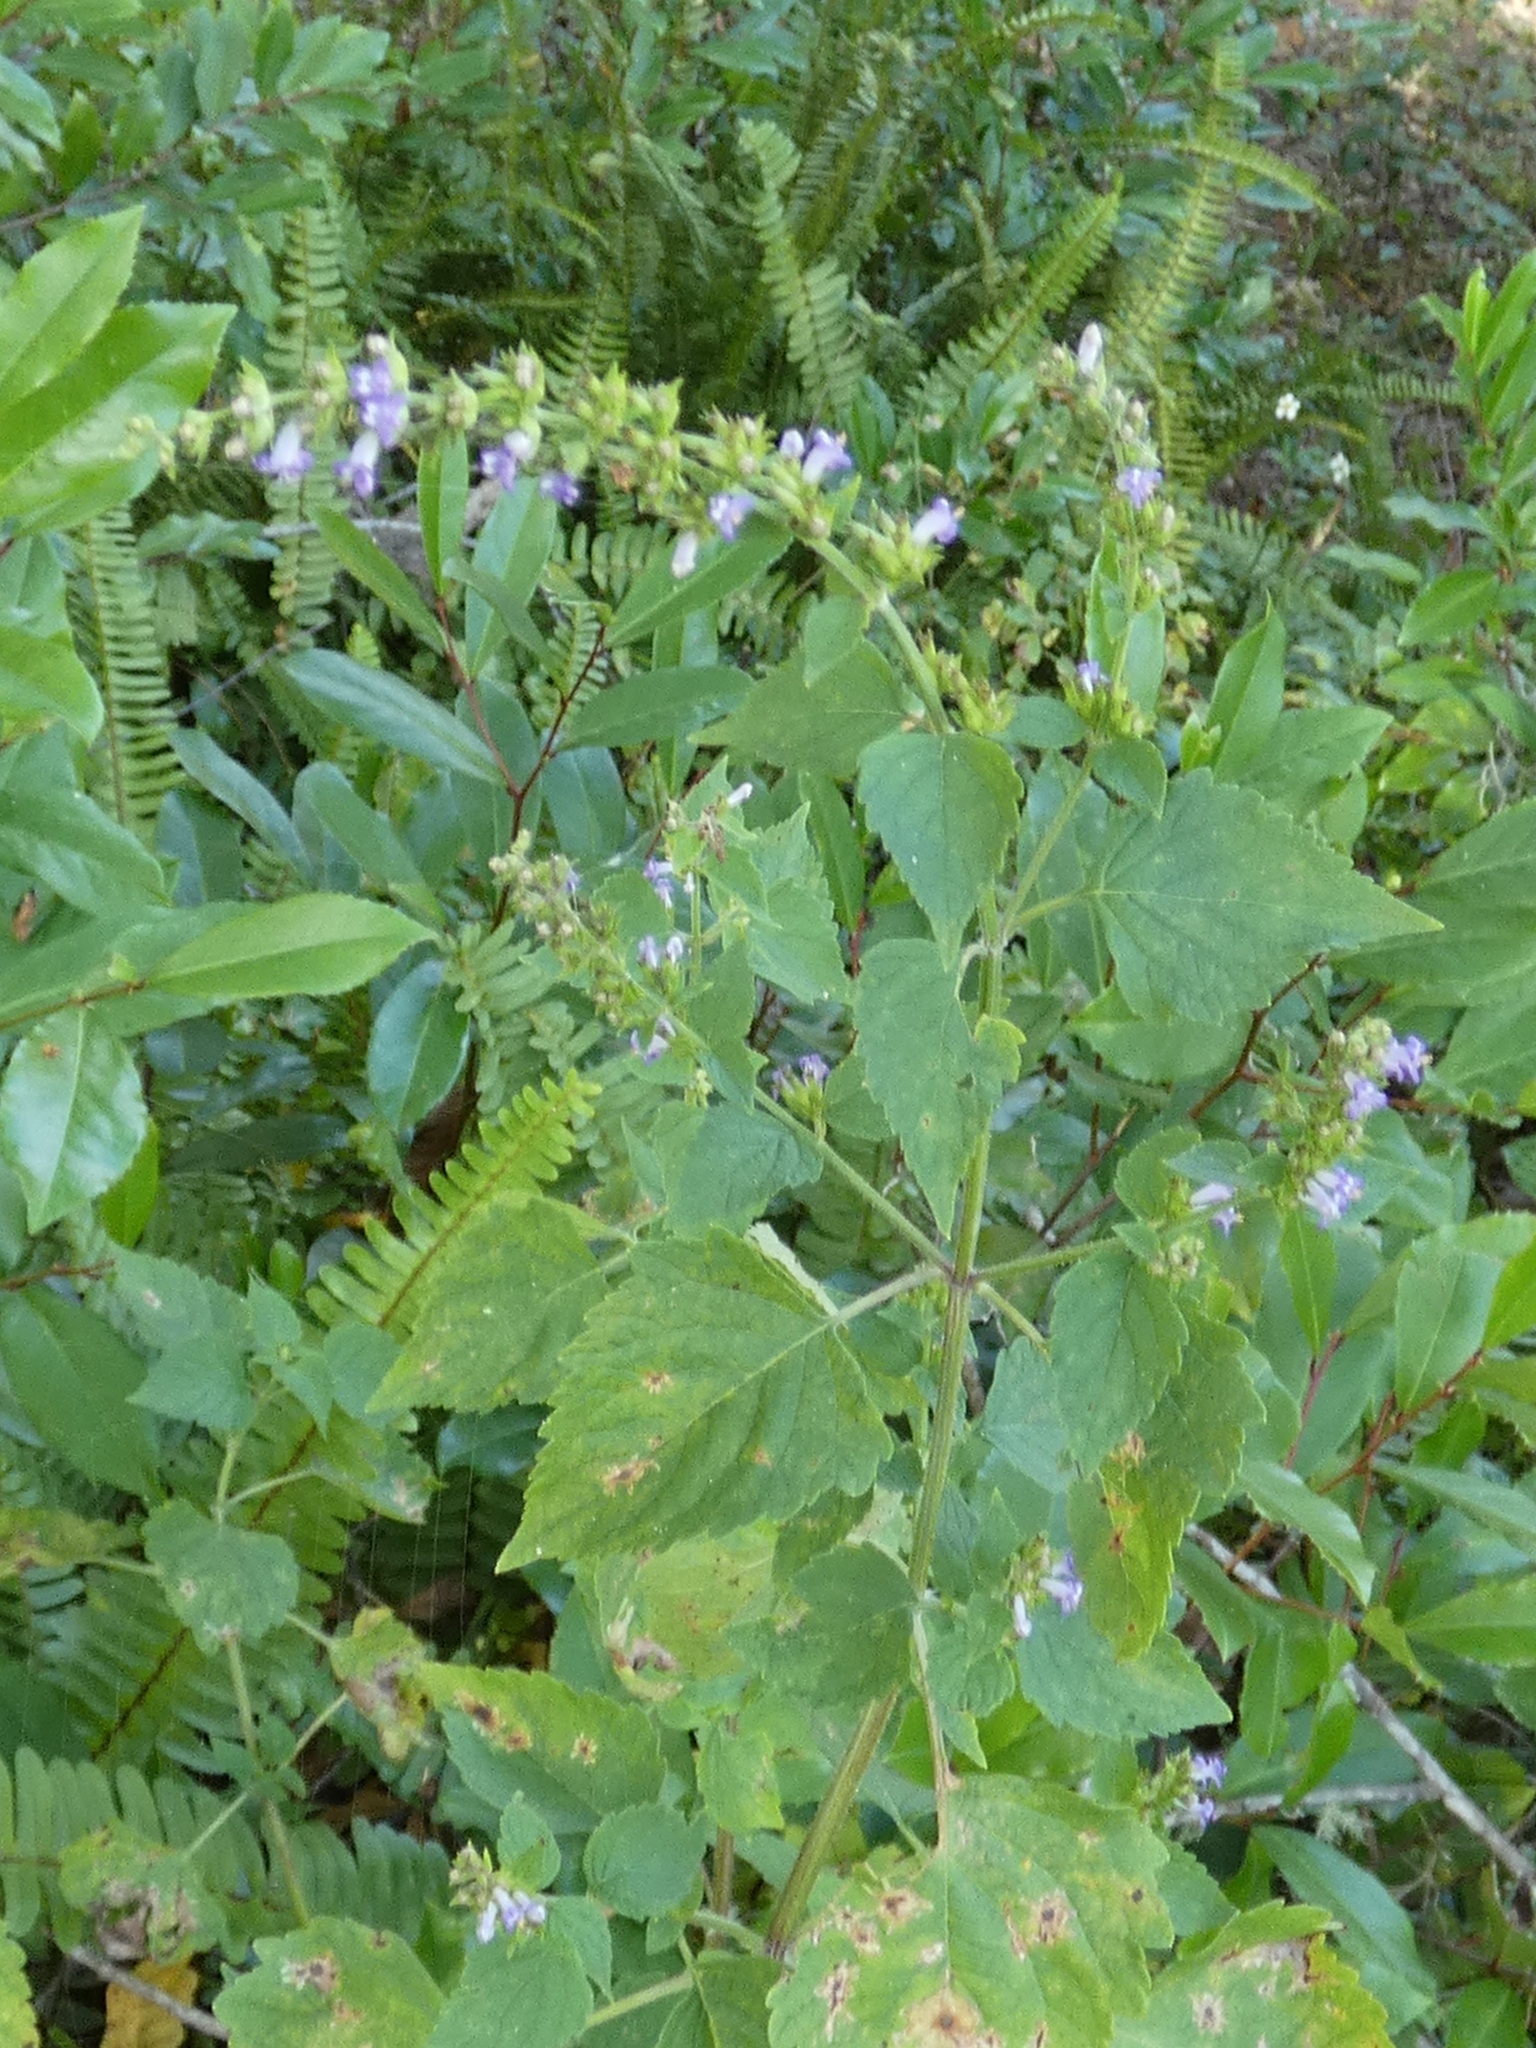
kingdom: Plantae
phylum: Tracheophyta
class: Magnoliopsida
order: Lamiales
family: Lamiaceae
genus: Cantinoa
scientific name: Cantinoa mutabilis
